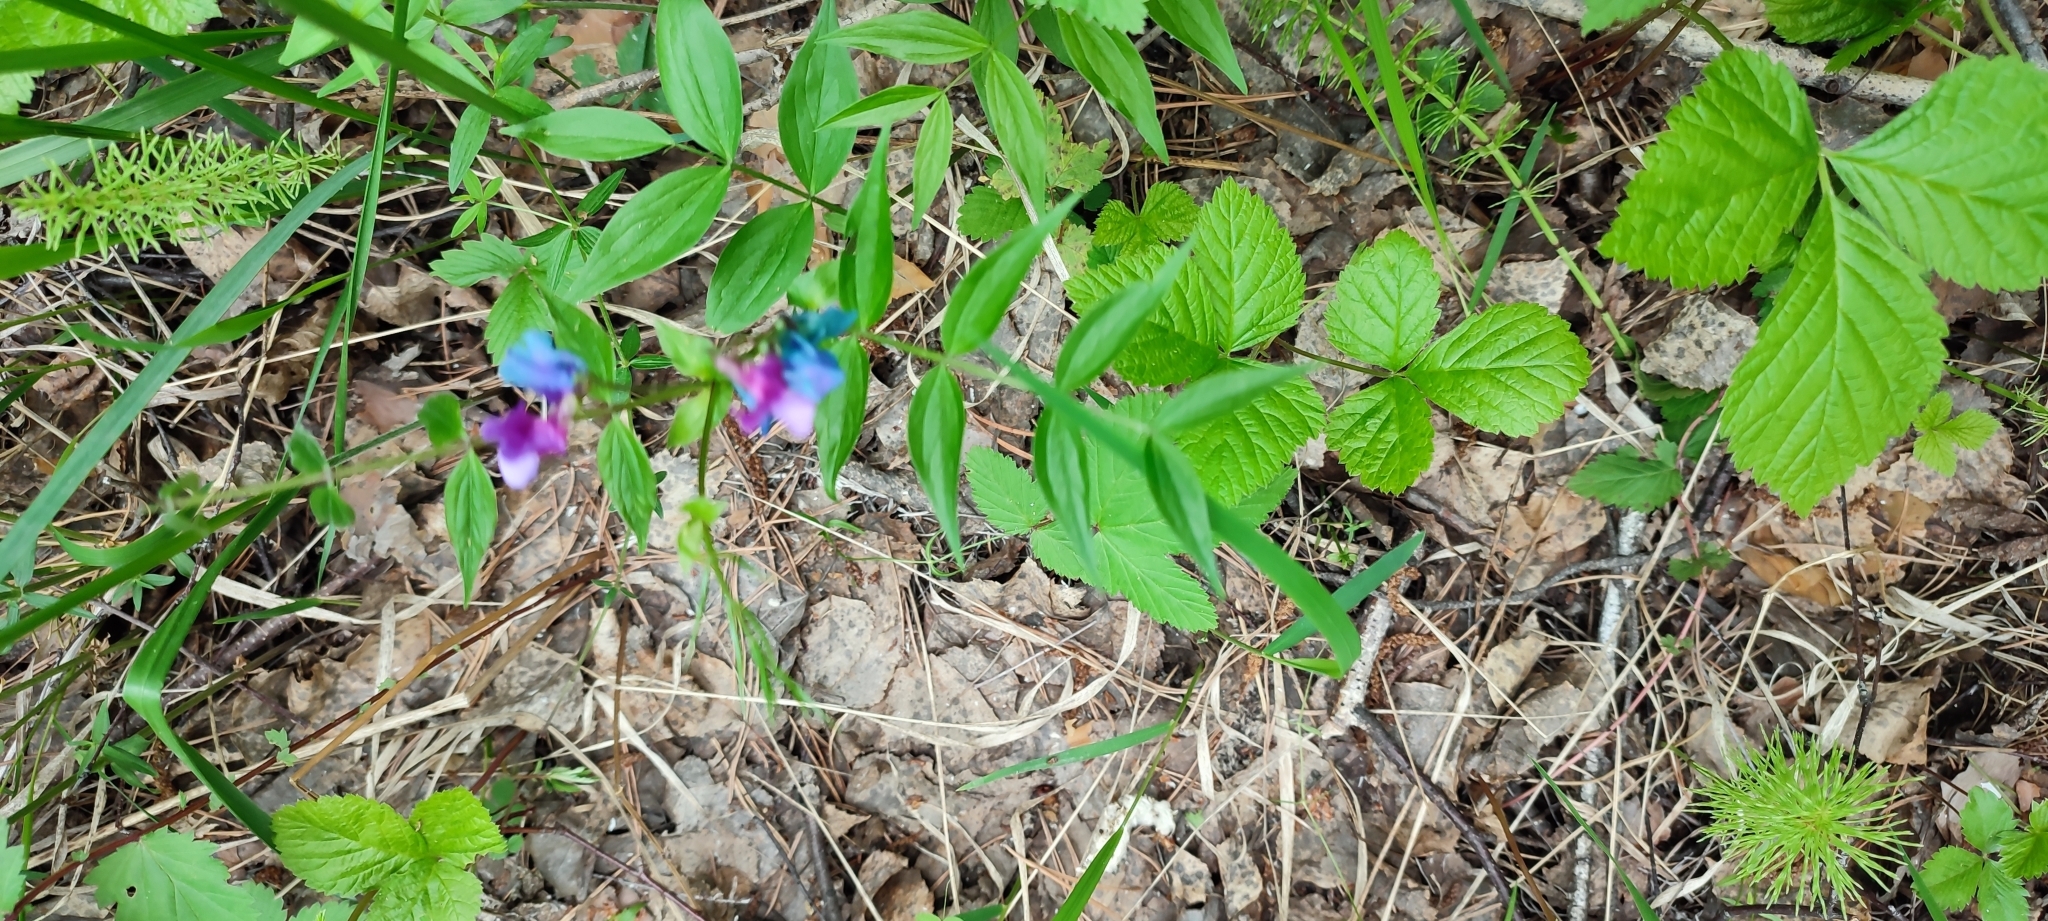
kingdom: Plantae
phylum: Tracheophyta
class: Magnoliopsida
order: Fabales
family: Fabaceae
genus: Lathyrus
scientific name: Lathyrus vernus
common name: Spring pea
